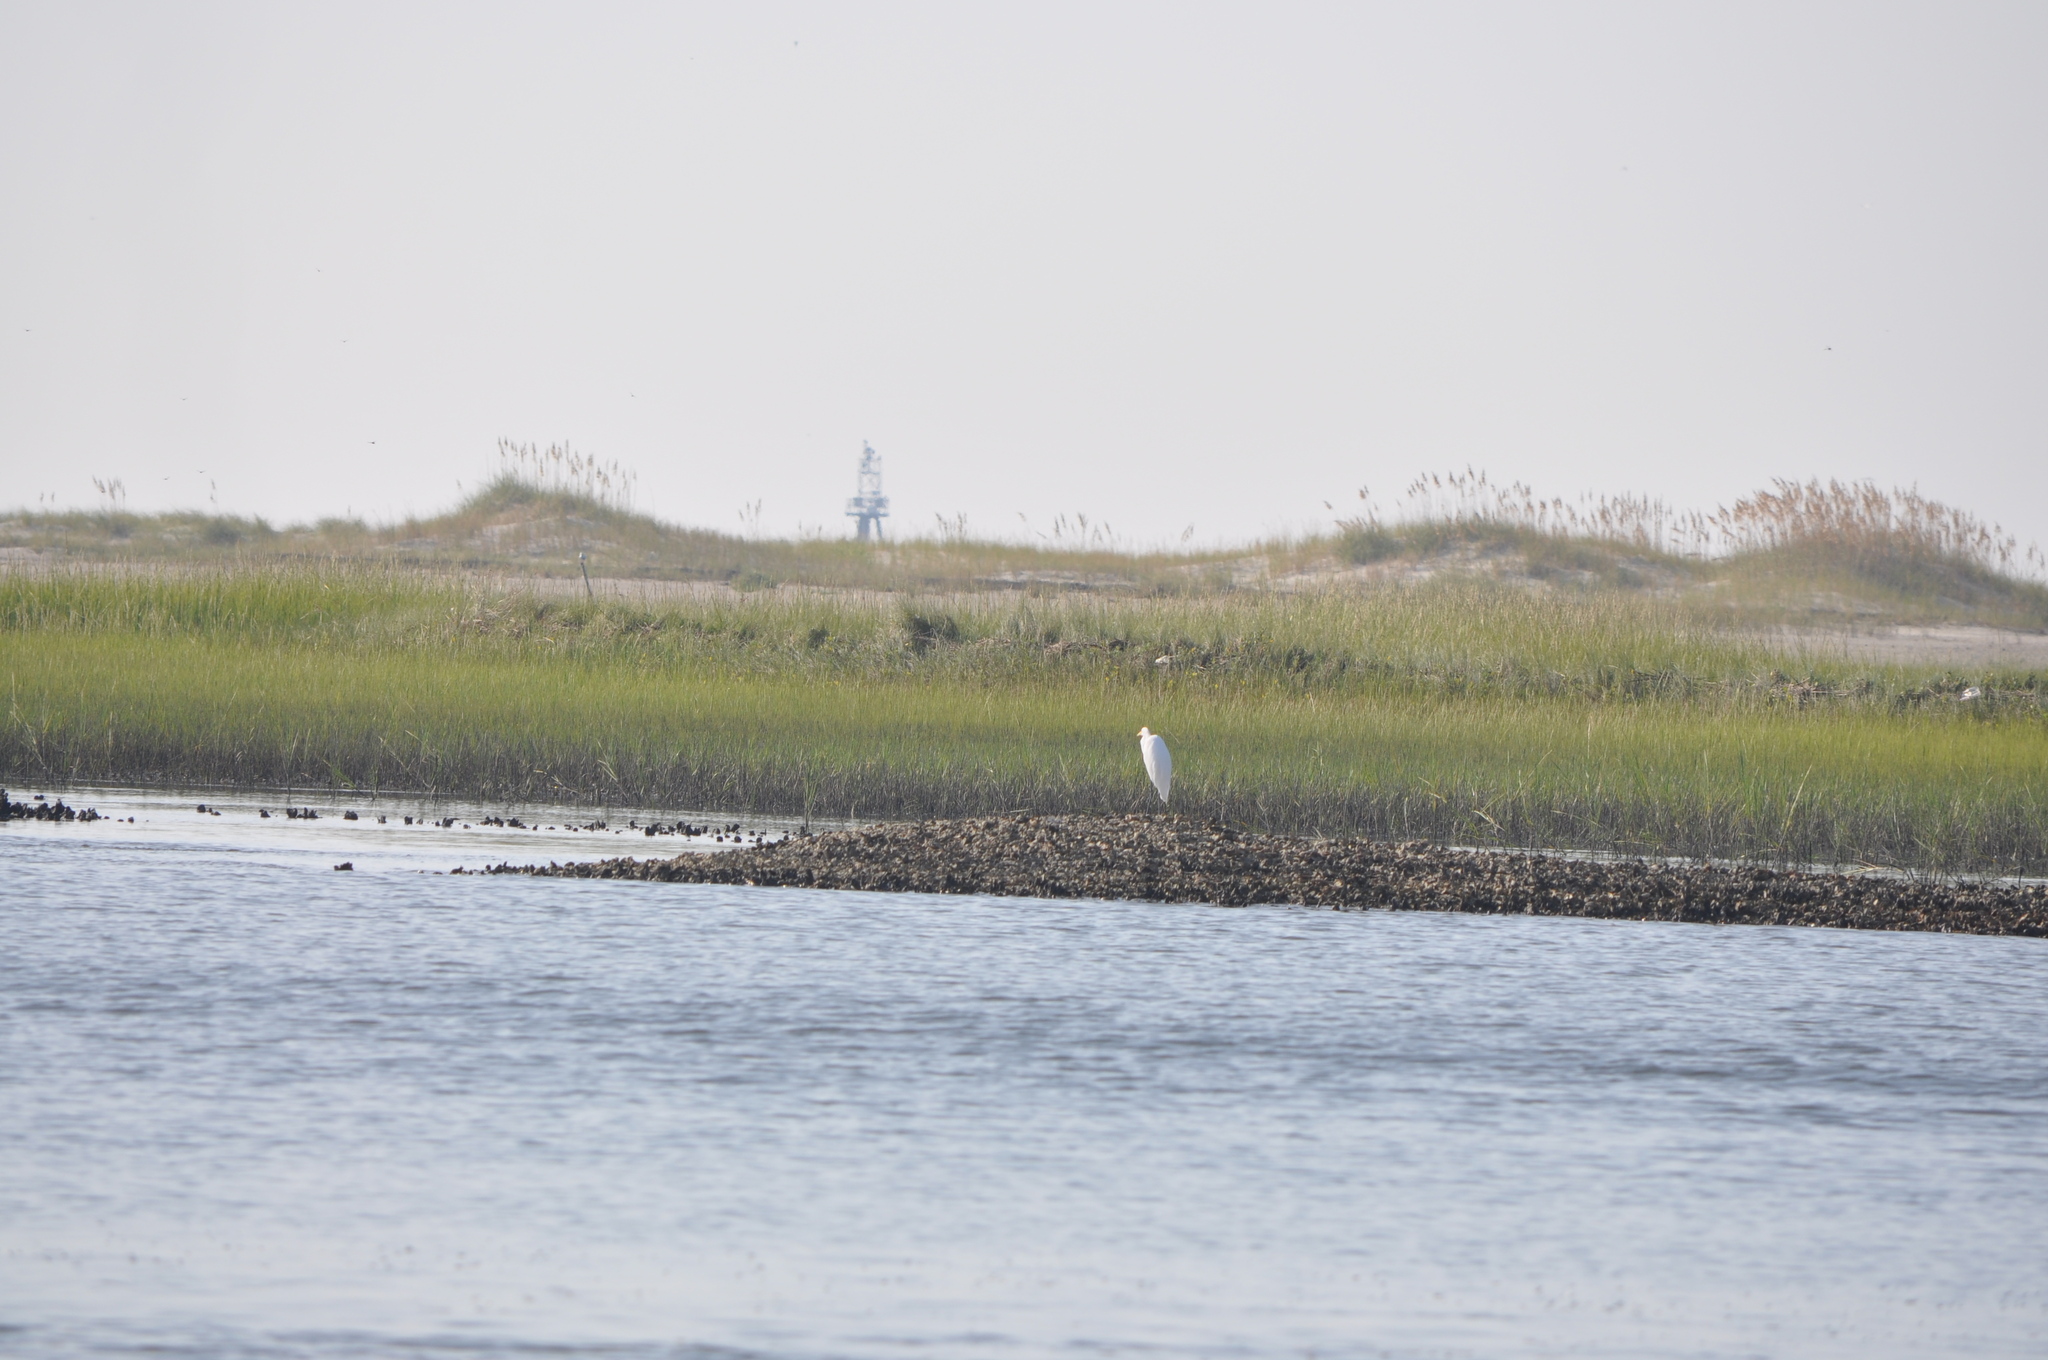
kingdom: Animalia
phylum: Chordata
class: Aves
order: Pelecaniformes
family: Ardeidae
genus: Ardea
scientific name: Ardea alba
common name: Great egret
